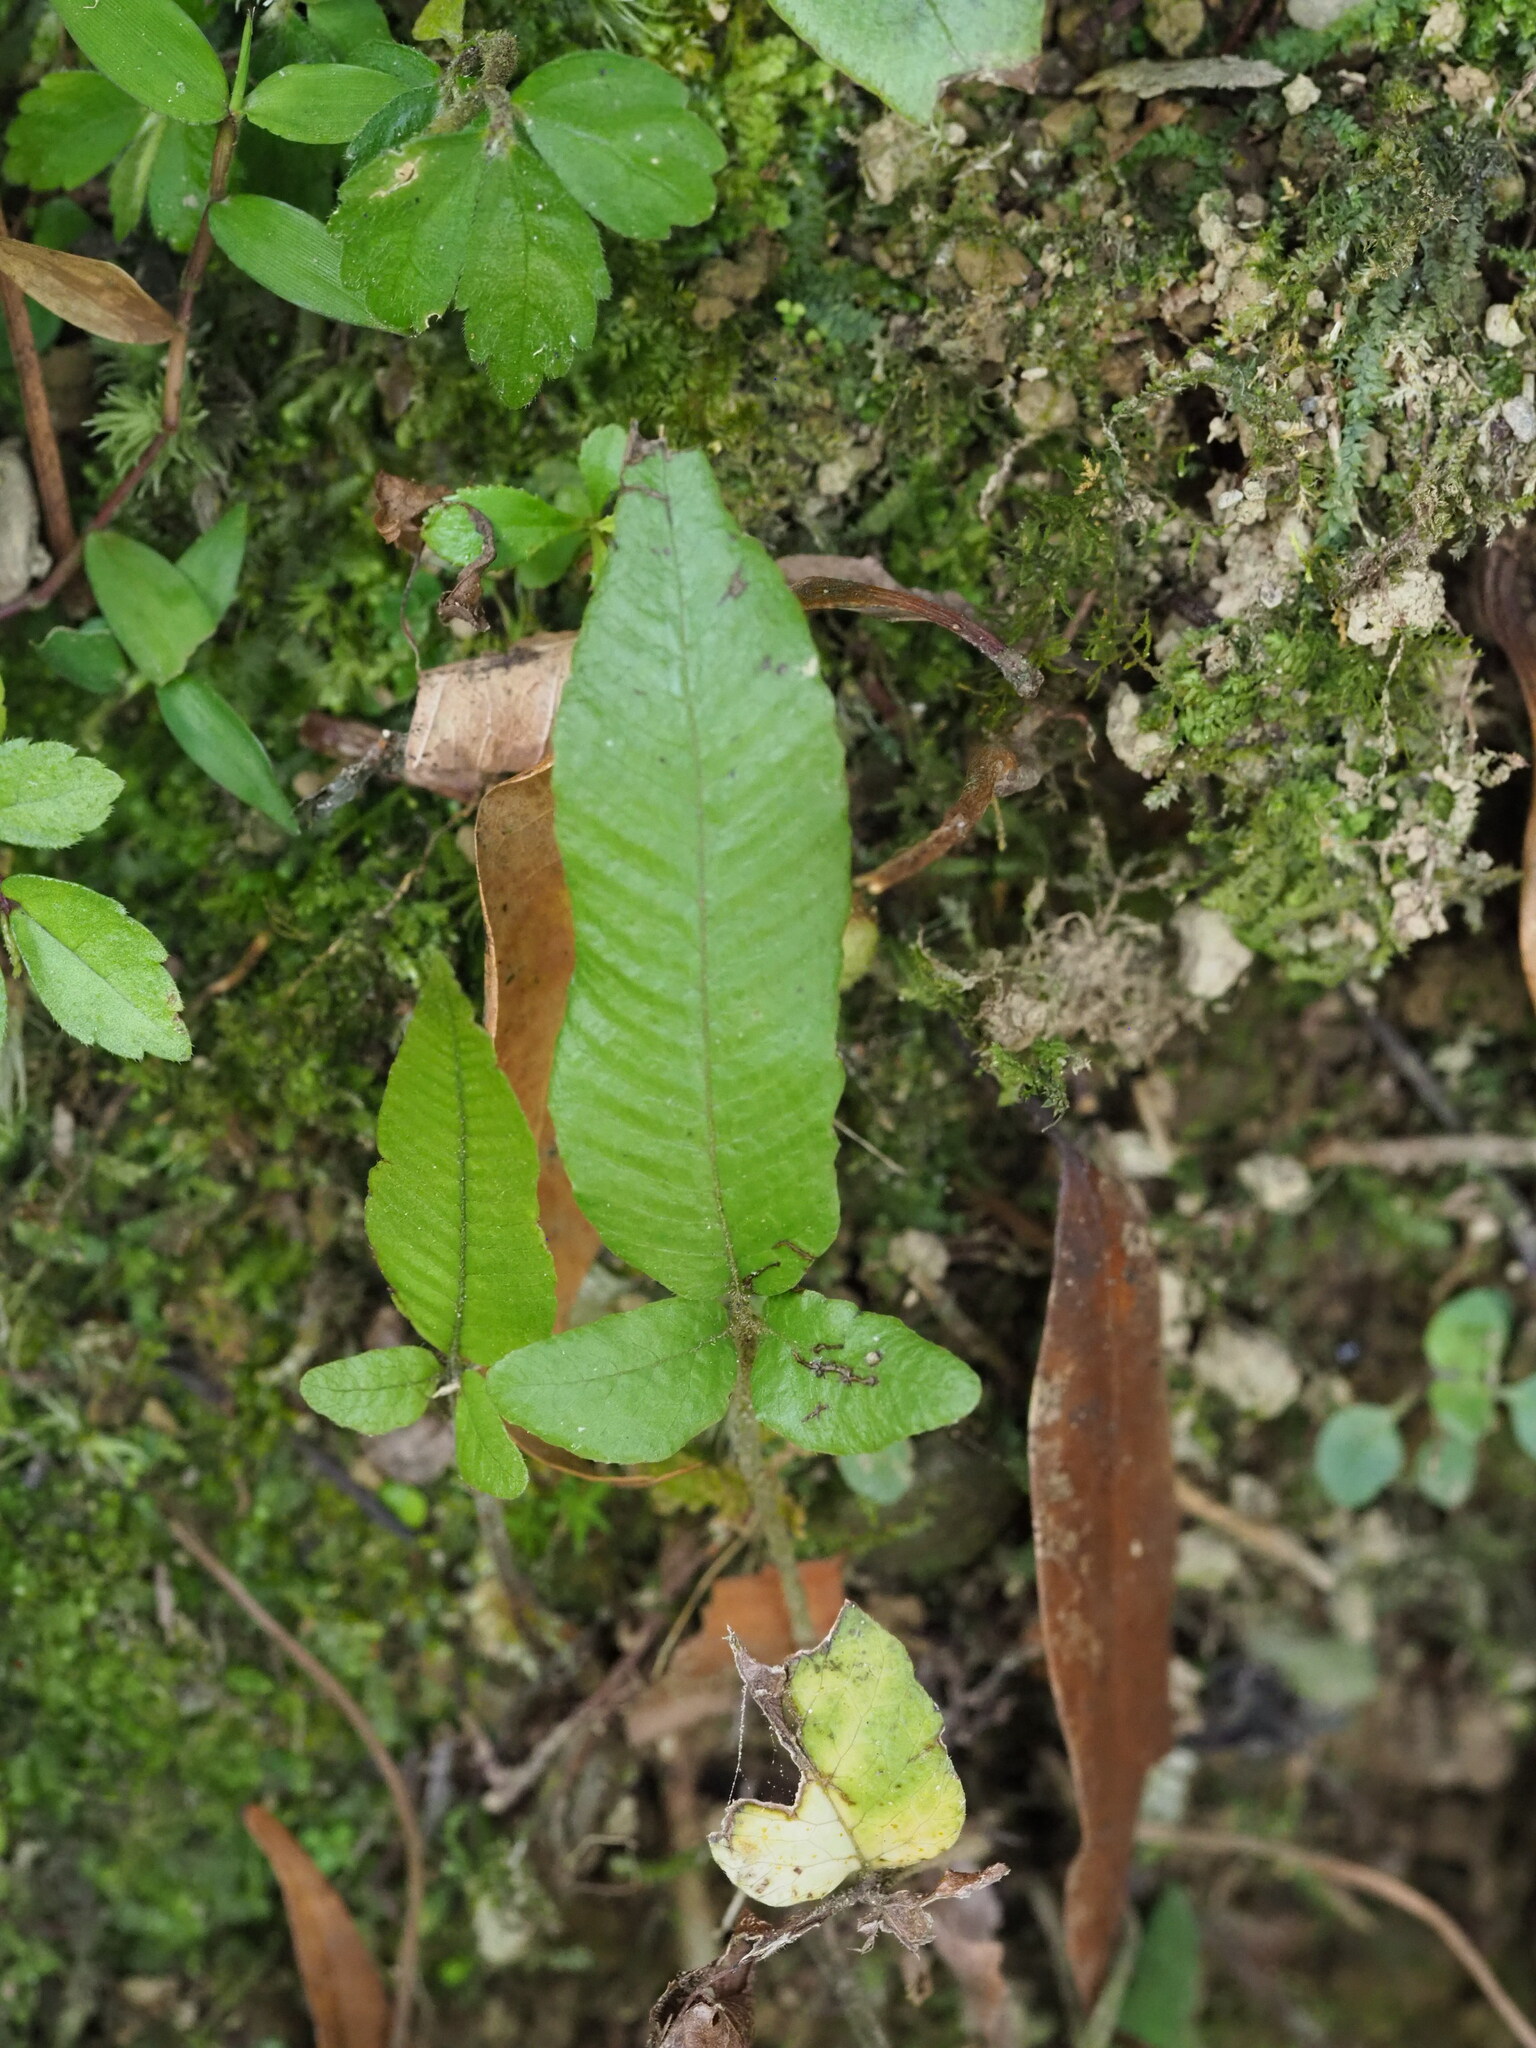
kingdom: Plantae
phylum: Tracheophyta
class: Polypodiopsida
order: Polypodiales
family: Thelypteridaceae
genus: Grypothrix
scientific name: Grypothrix triphylla
